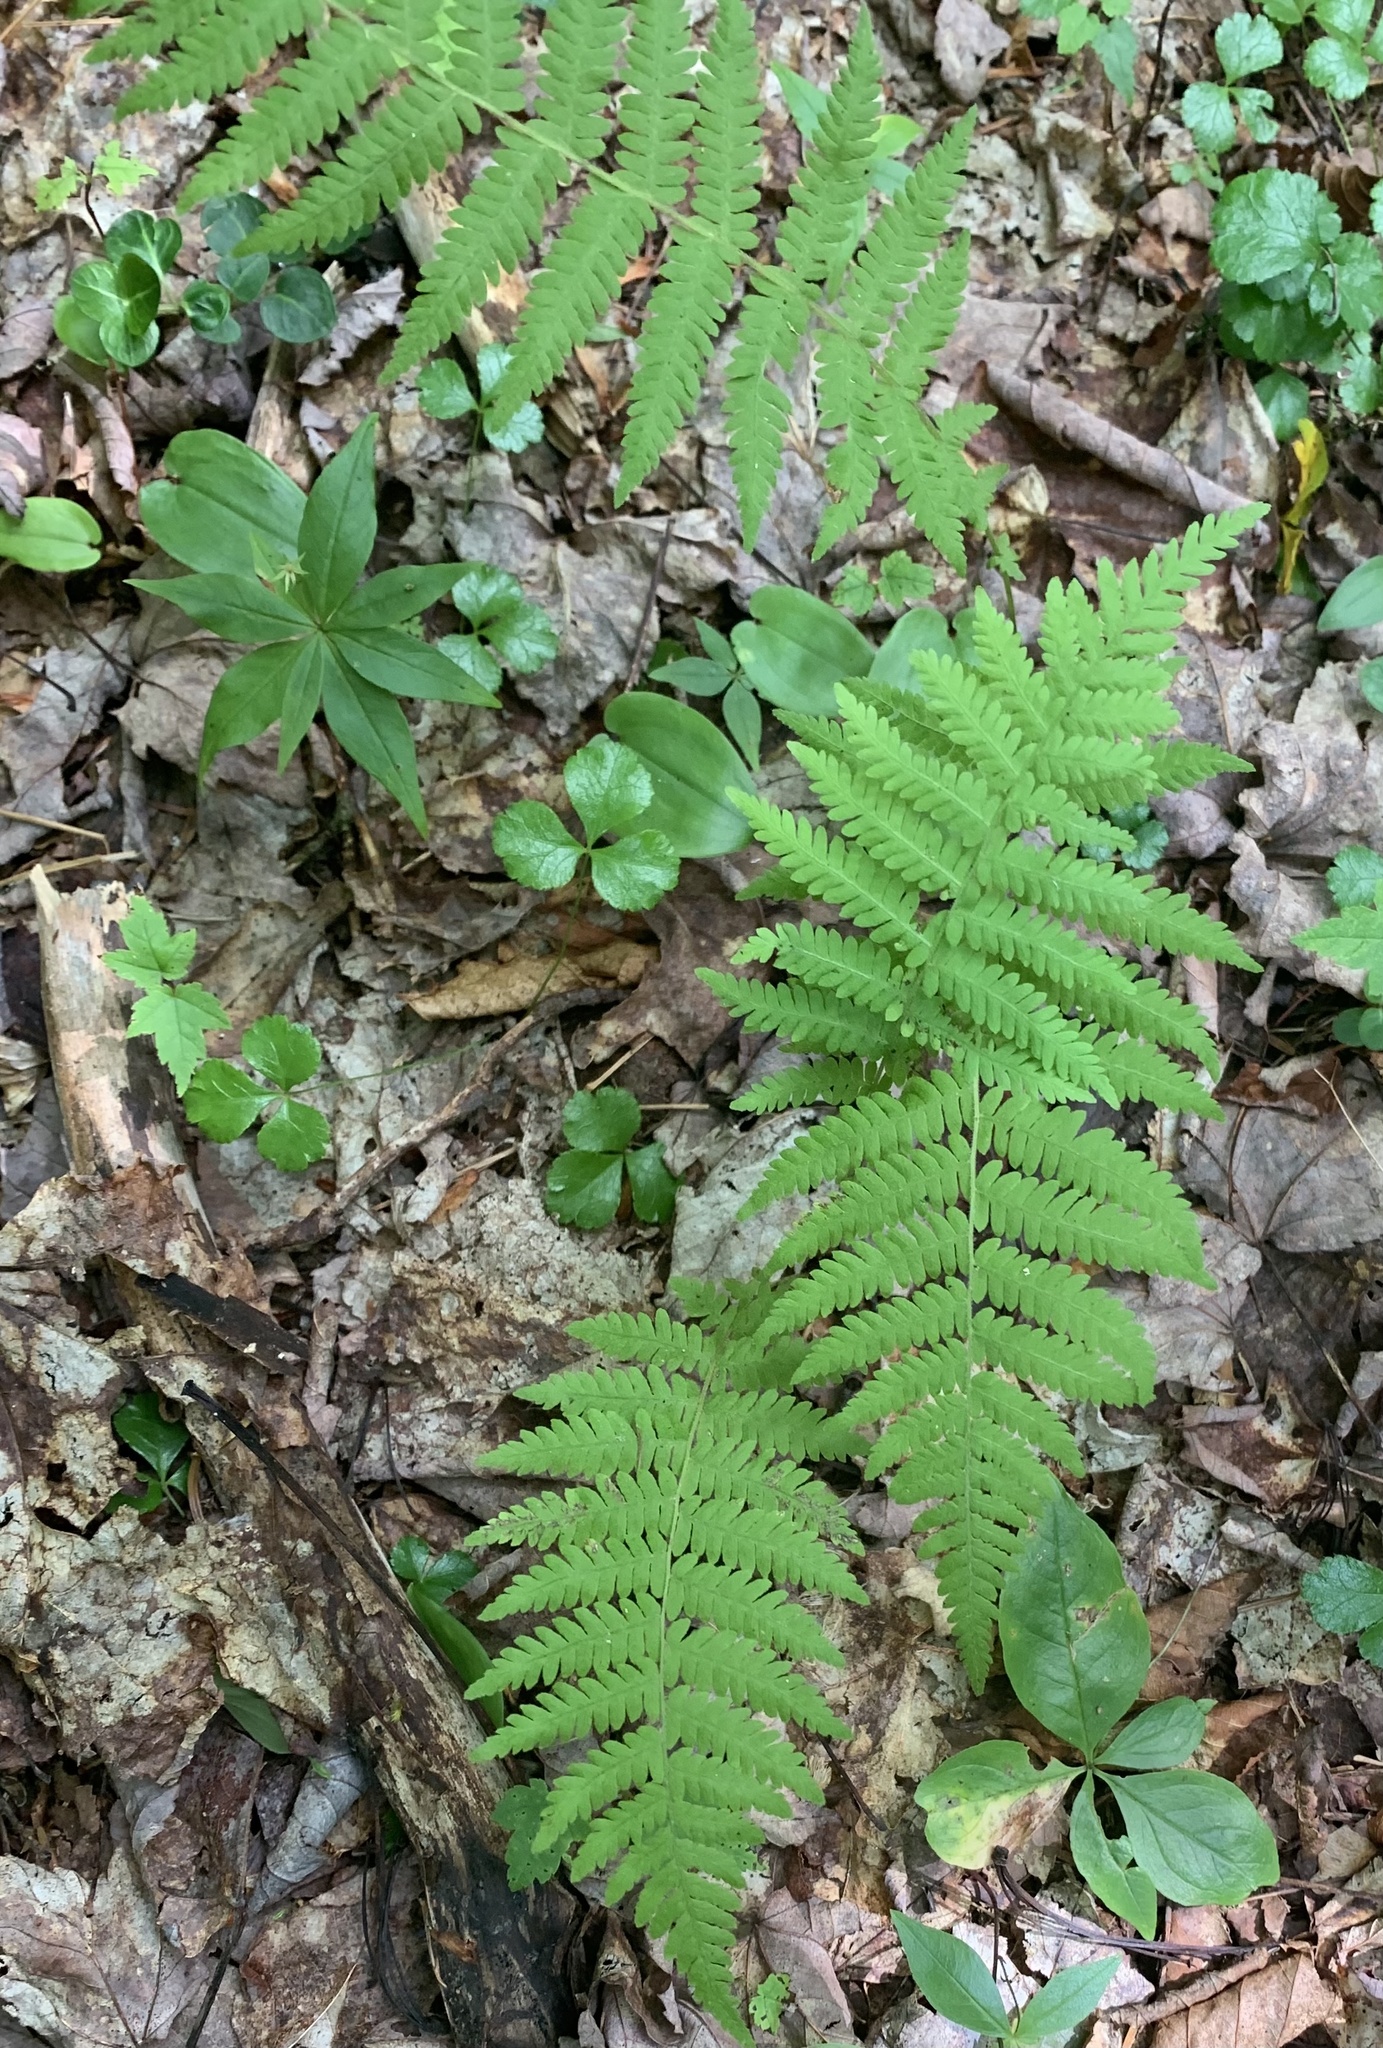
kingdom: Plantae
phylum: Tracheophyta
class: Polypodiopsida
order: Polypodiales
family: Thelypteridaceae
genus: Amauropelta
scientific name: Amauropelta noveboracensis
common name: New york fern
